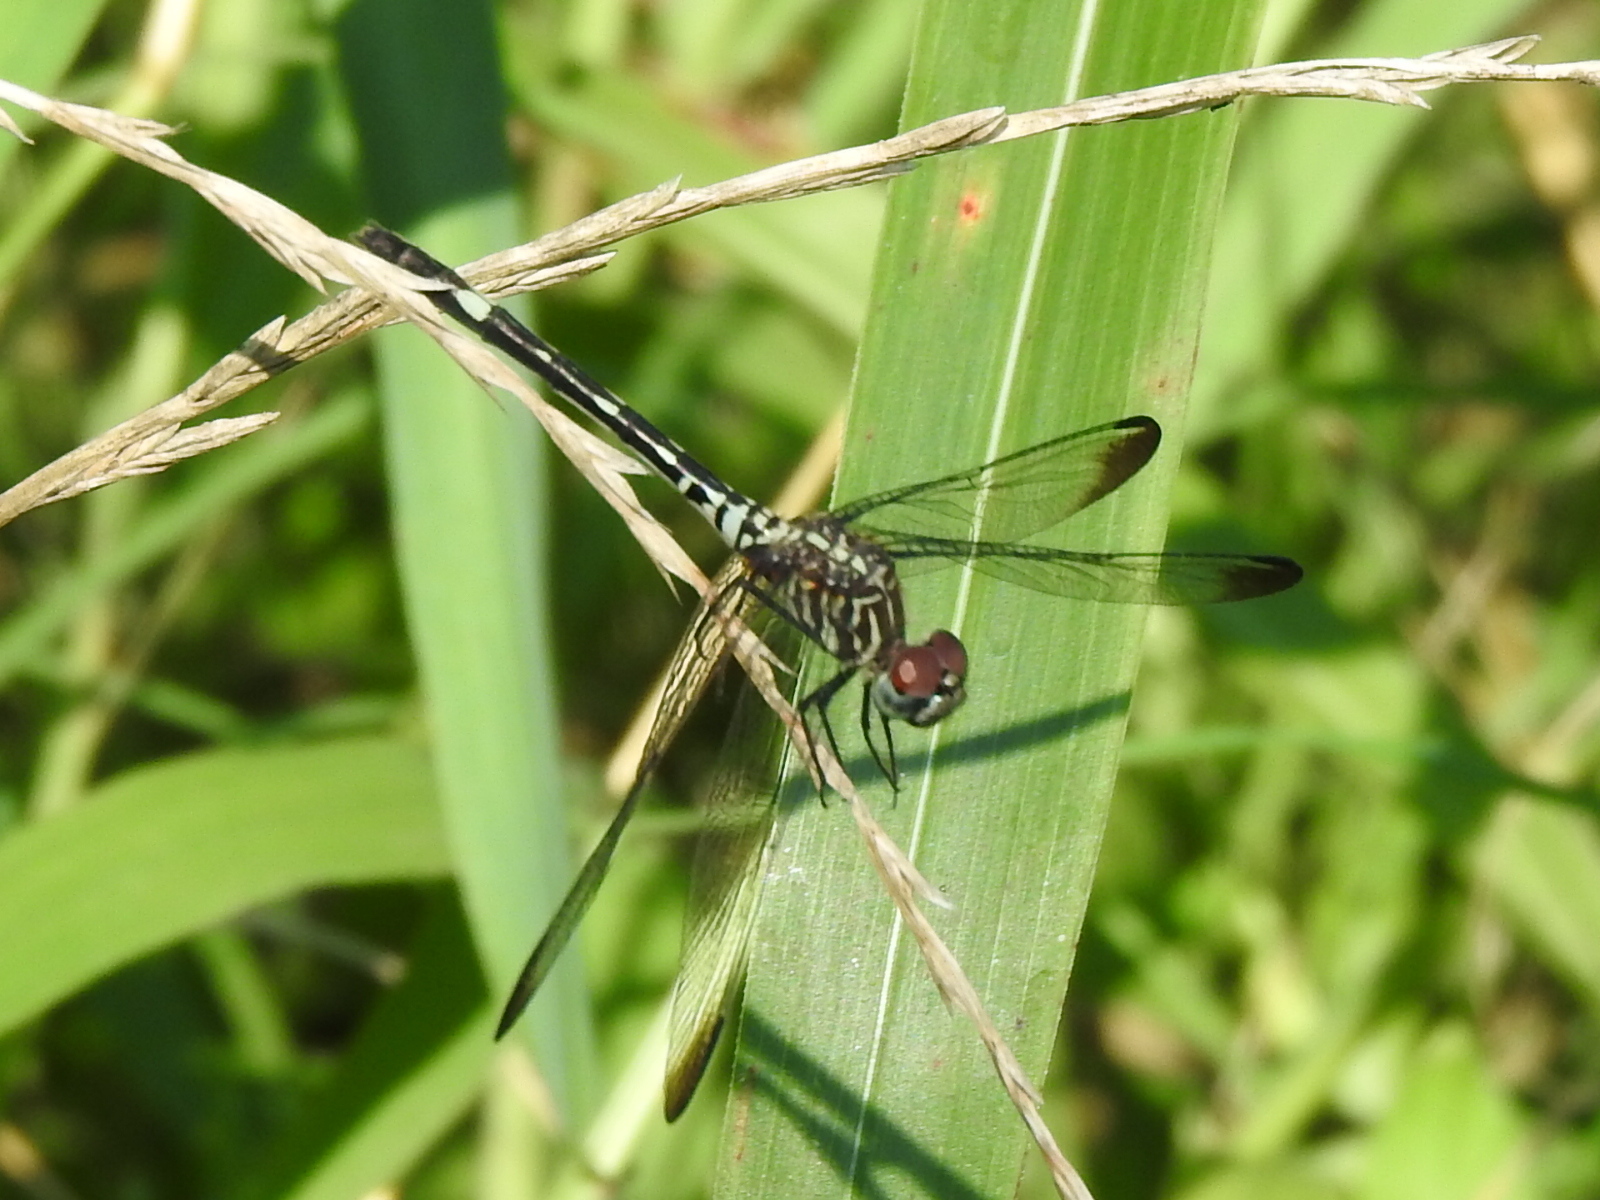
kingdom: Animalia
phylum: Arthropoda
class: Insecta
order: Odonata
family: Libellulidae
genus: Dythemis
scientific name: Dythemis velox
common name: Swift setwing
